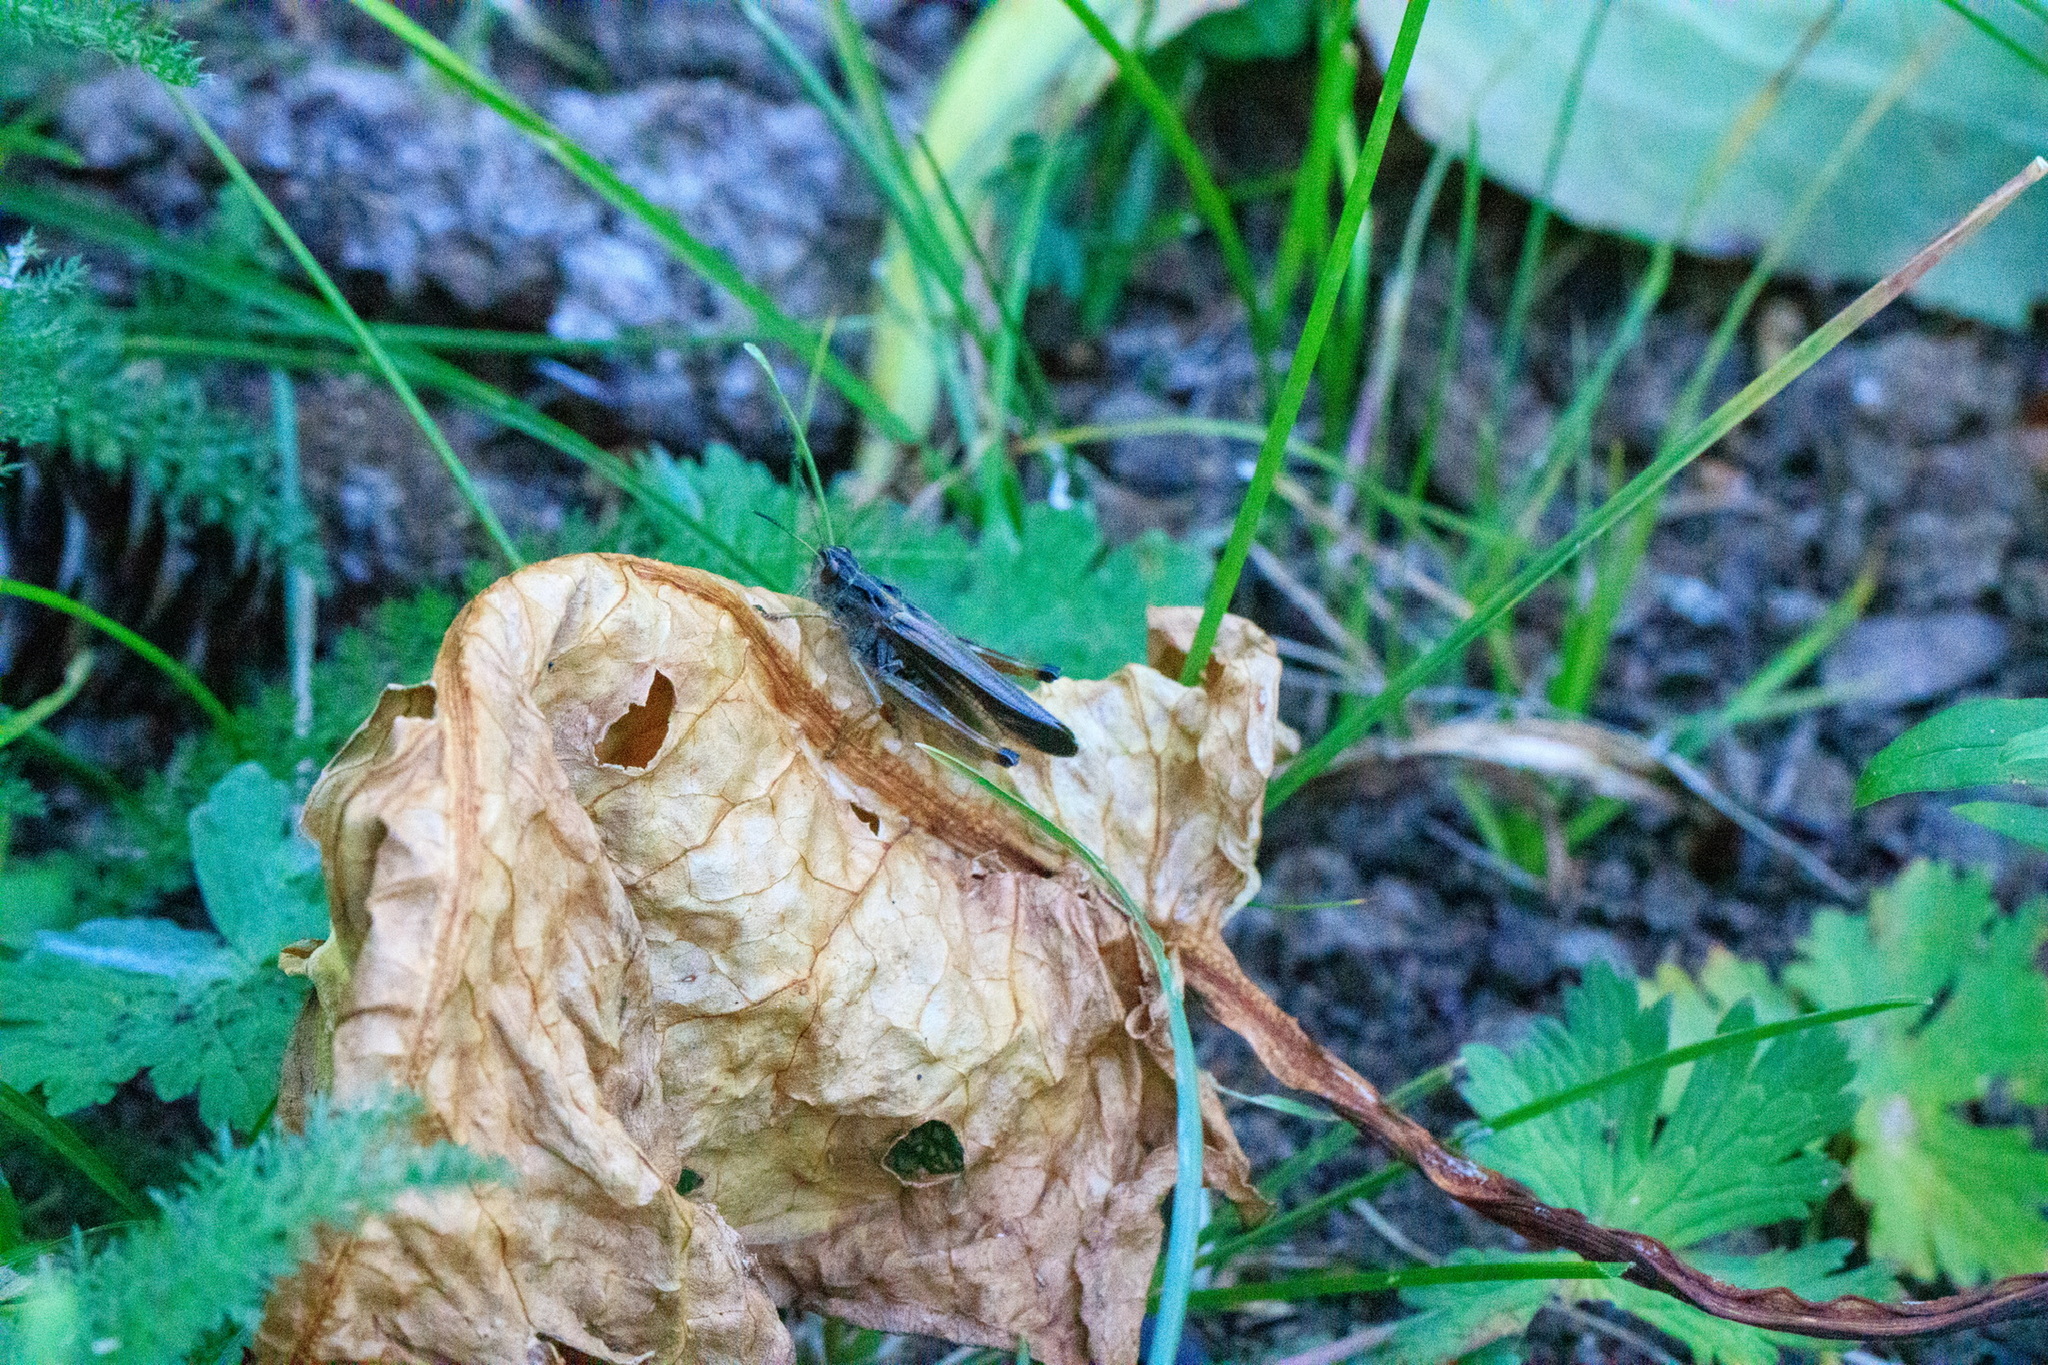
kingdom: Animalia
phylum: Arthropoda
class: Insecta
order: Orthoptera
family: Acrididae
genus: Stauroderus
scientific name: Stauroderus scalaris
